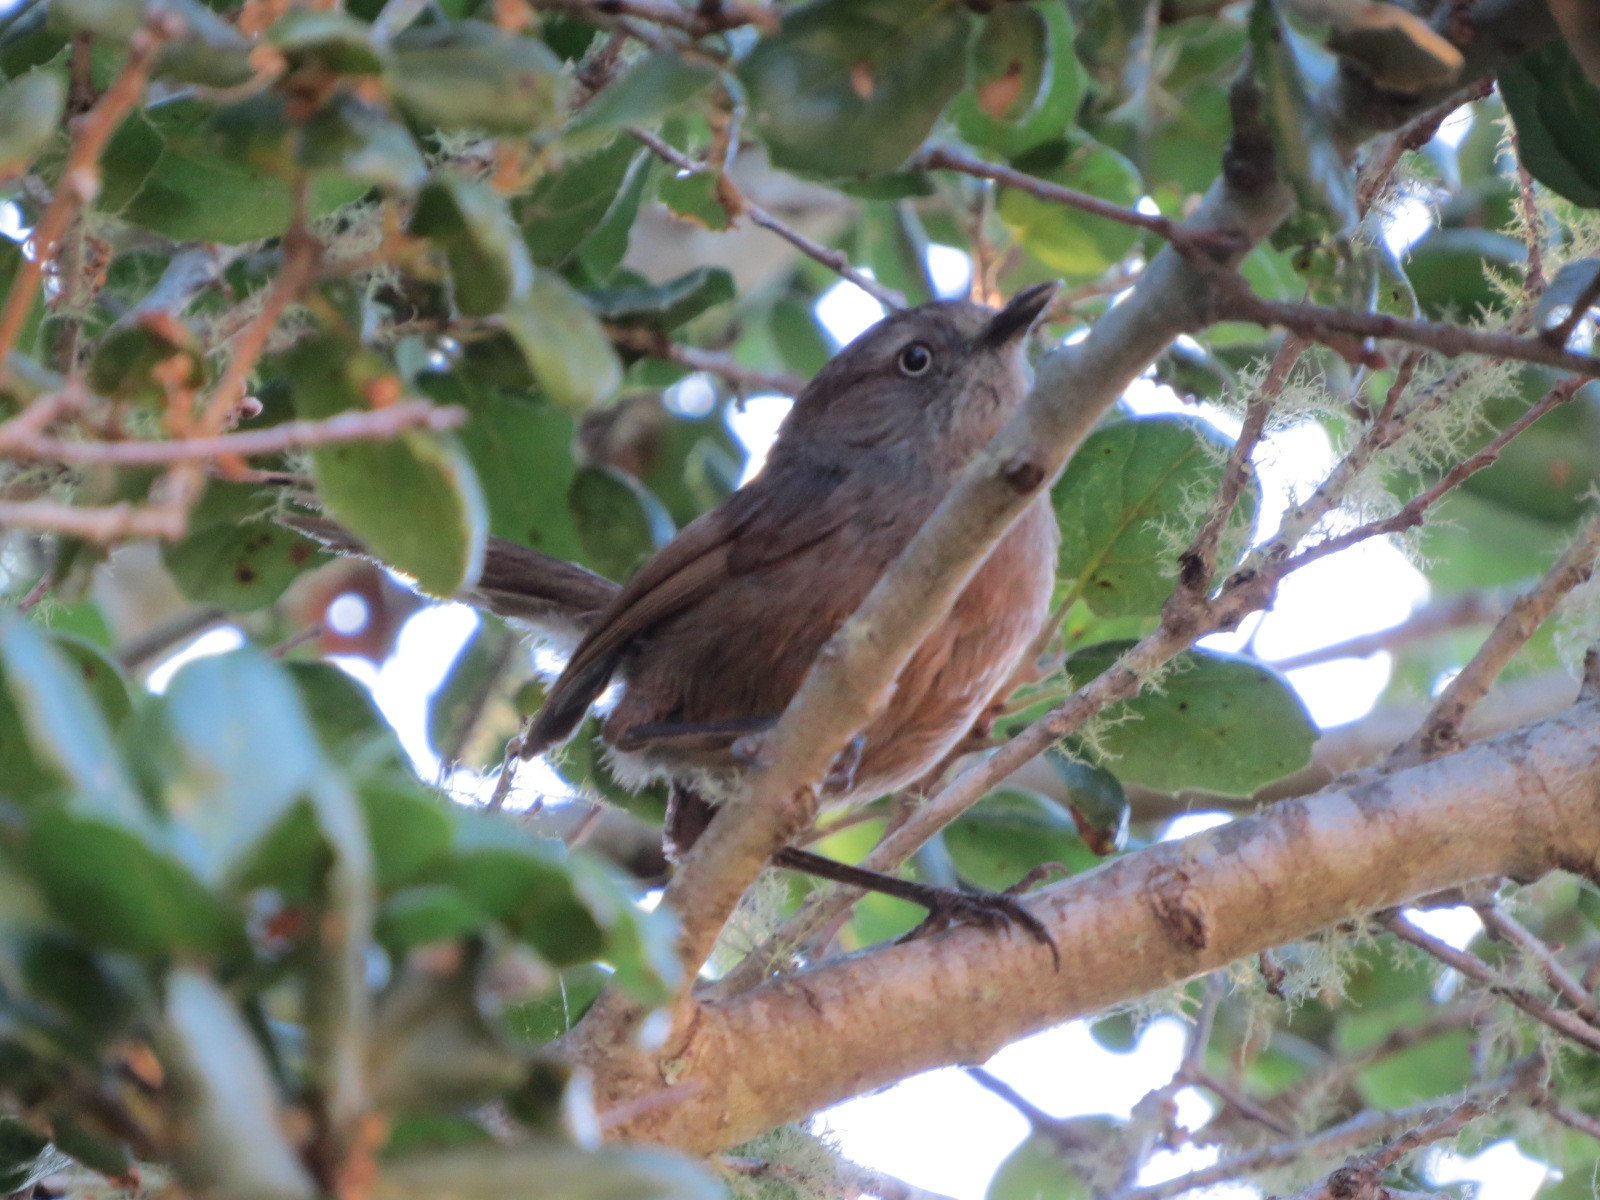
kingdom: Animalia
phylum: Chordata
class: Aves
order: Passeriformes
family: Sylviidae
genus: Chamaea
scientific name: Chamaea fasciata
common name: Wrentit
